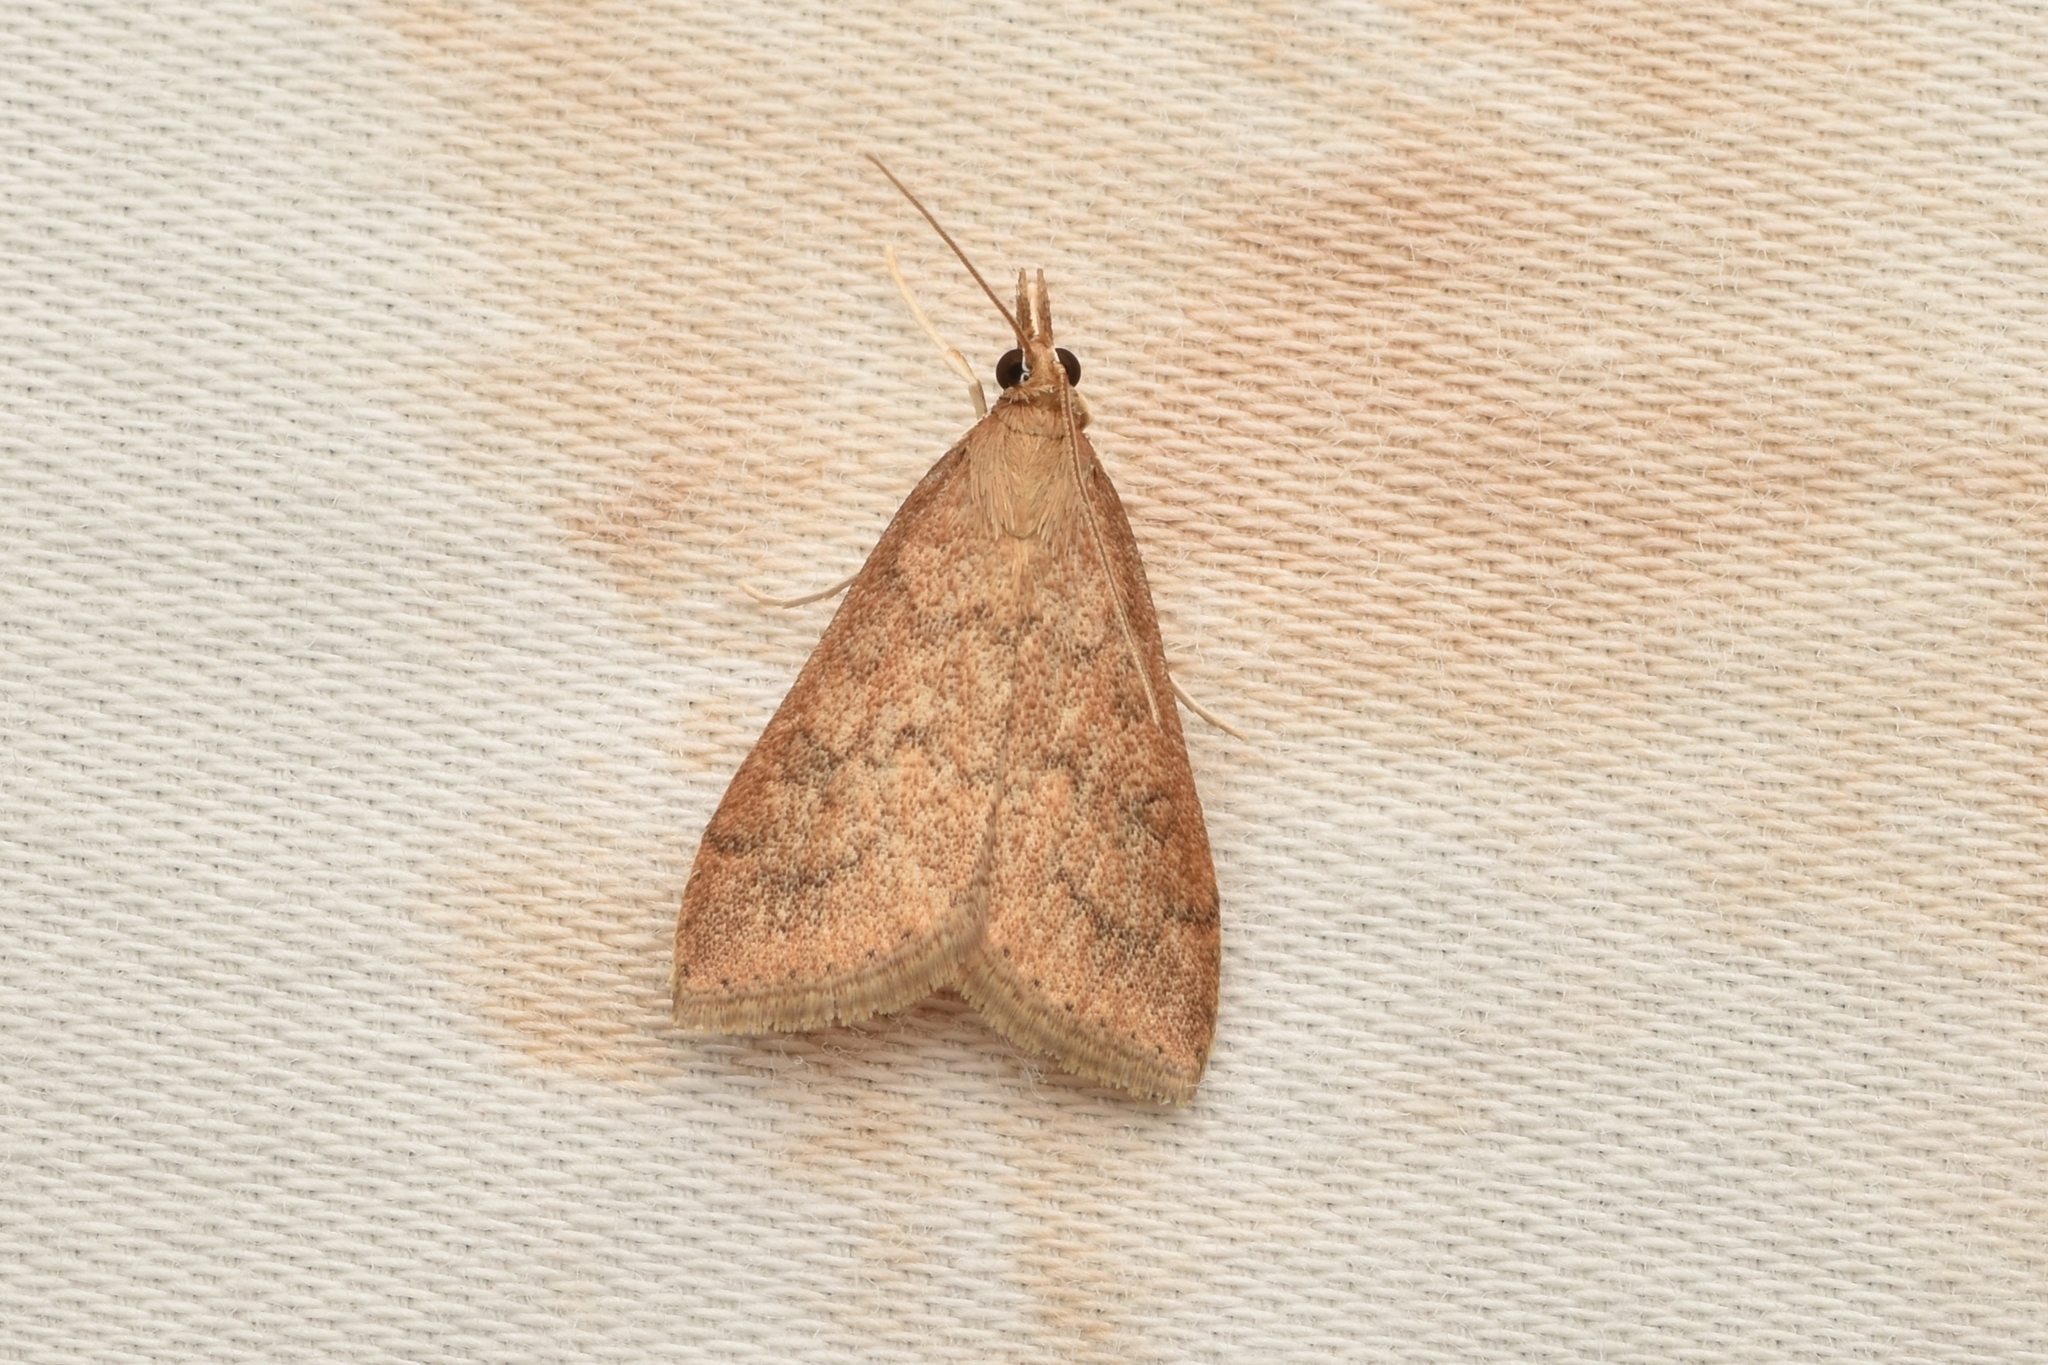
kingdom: Animalia
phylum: Arthropoda
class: Insecta
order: Lepidoptera
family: Crambidae
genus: Udea
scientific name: Udea rubigalis
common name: Celery leaftier moth
